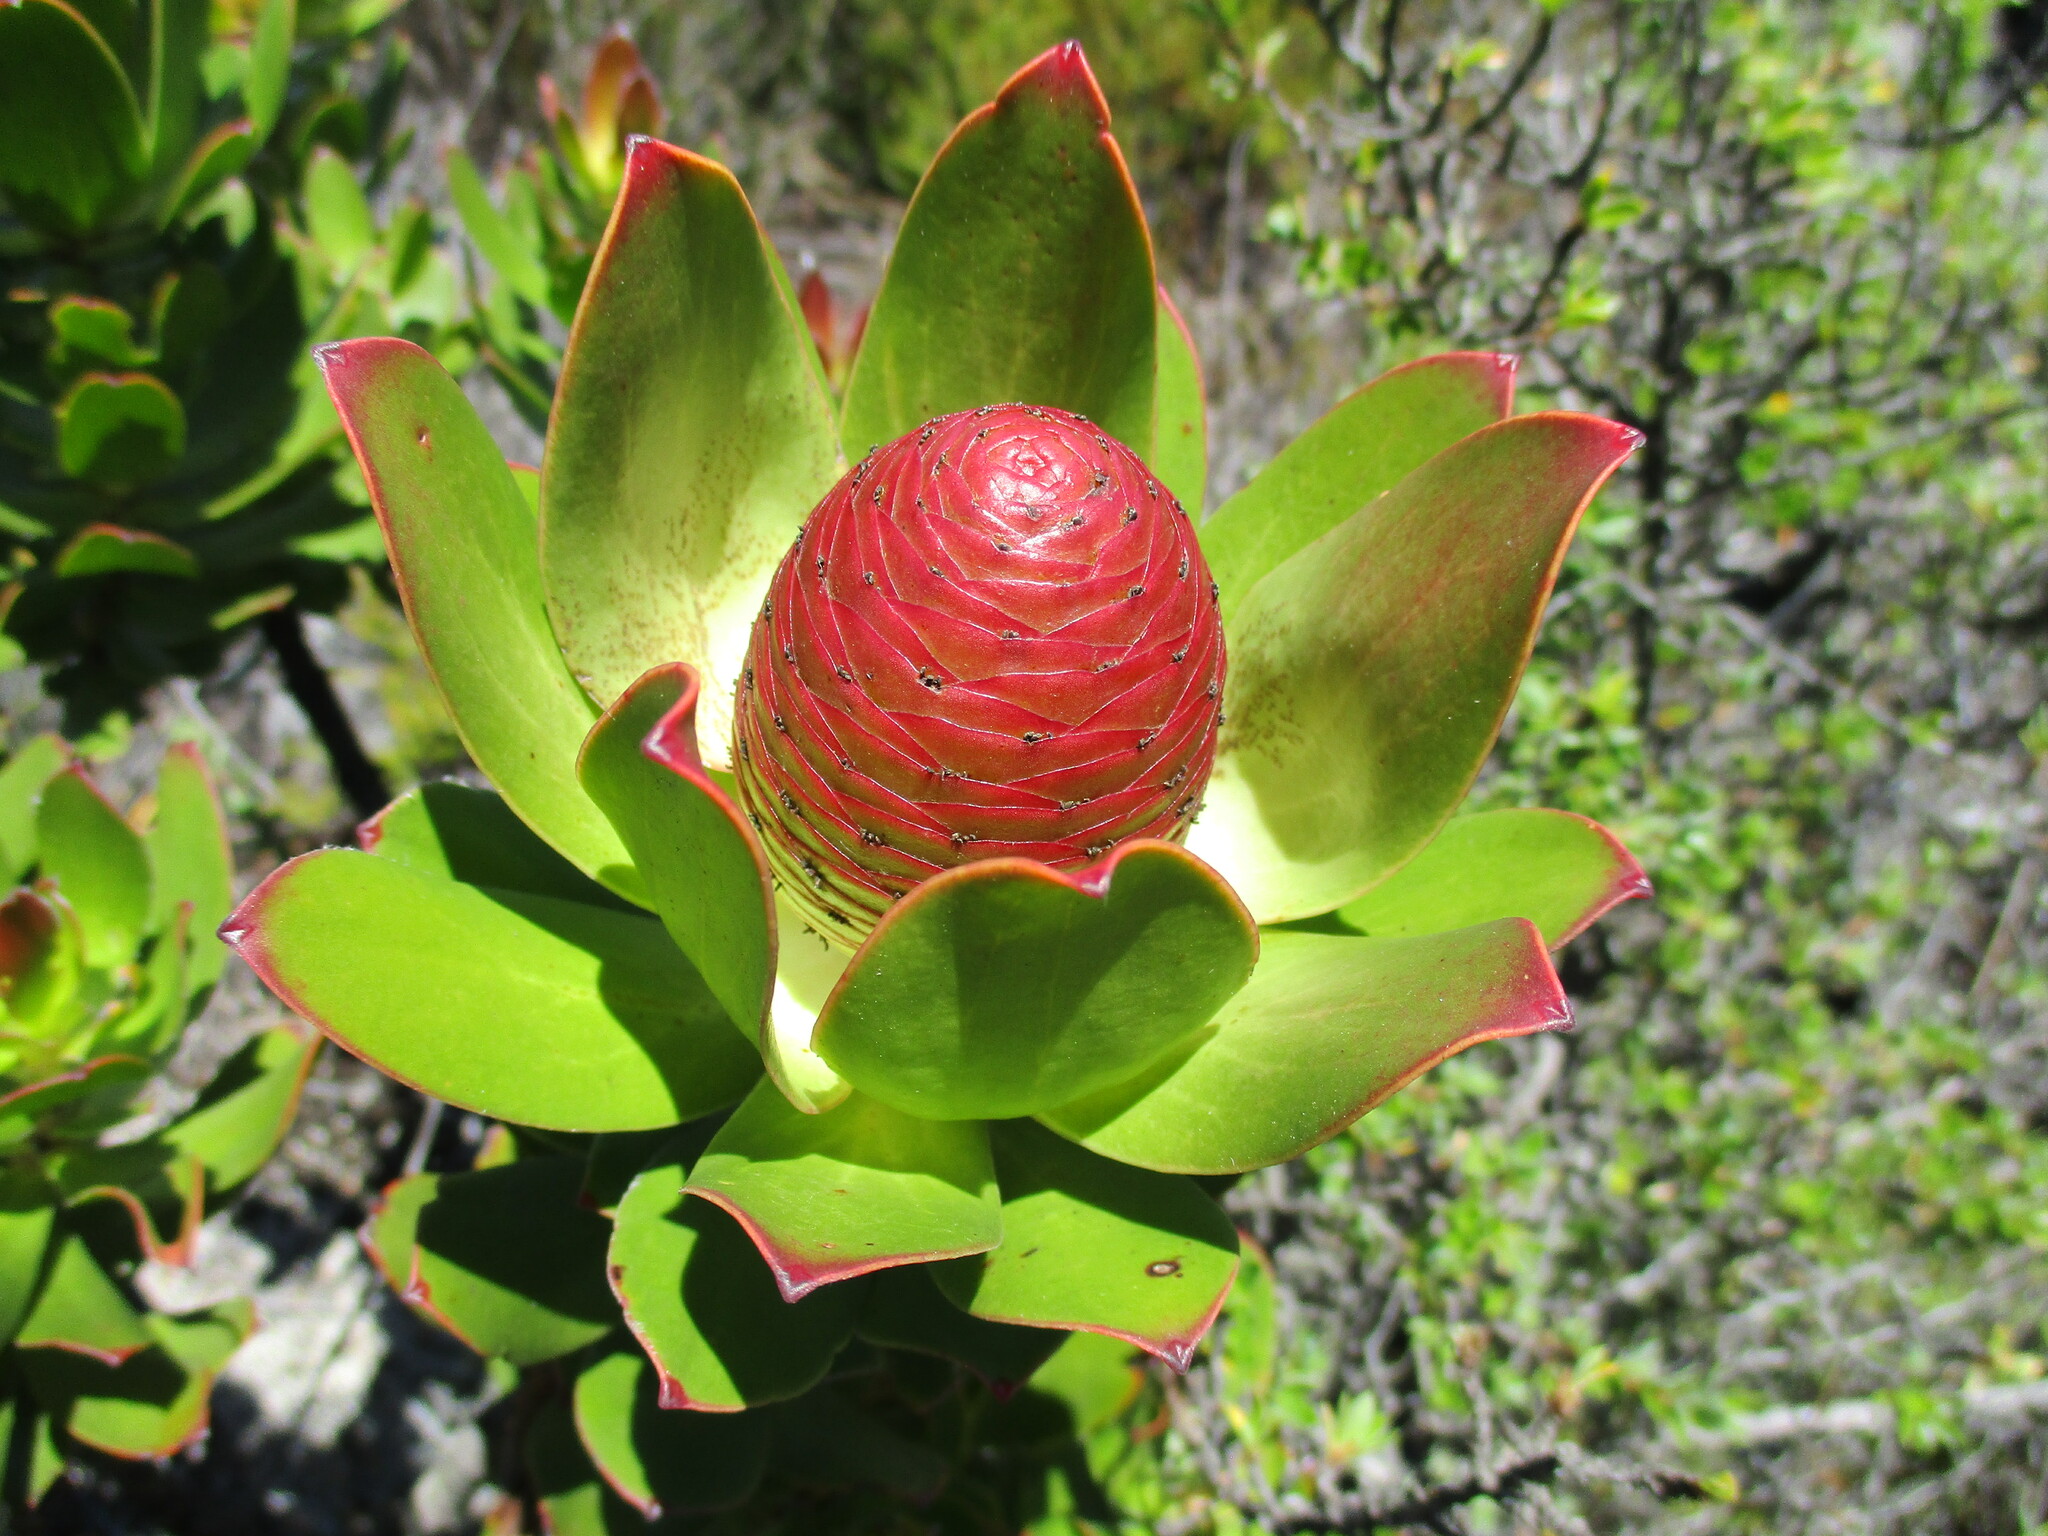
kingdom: Plantae
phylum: Tracheophyta
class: Magnoliopsida
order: Proteales
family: Proteaceae
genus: Leucadendron
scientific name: Leucadendron strobilinum
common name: Mountain rose
